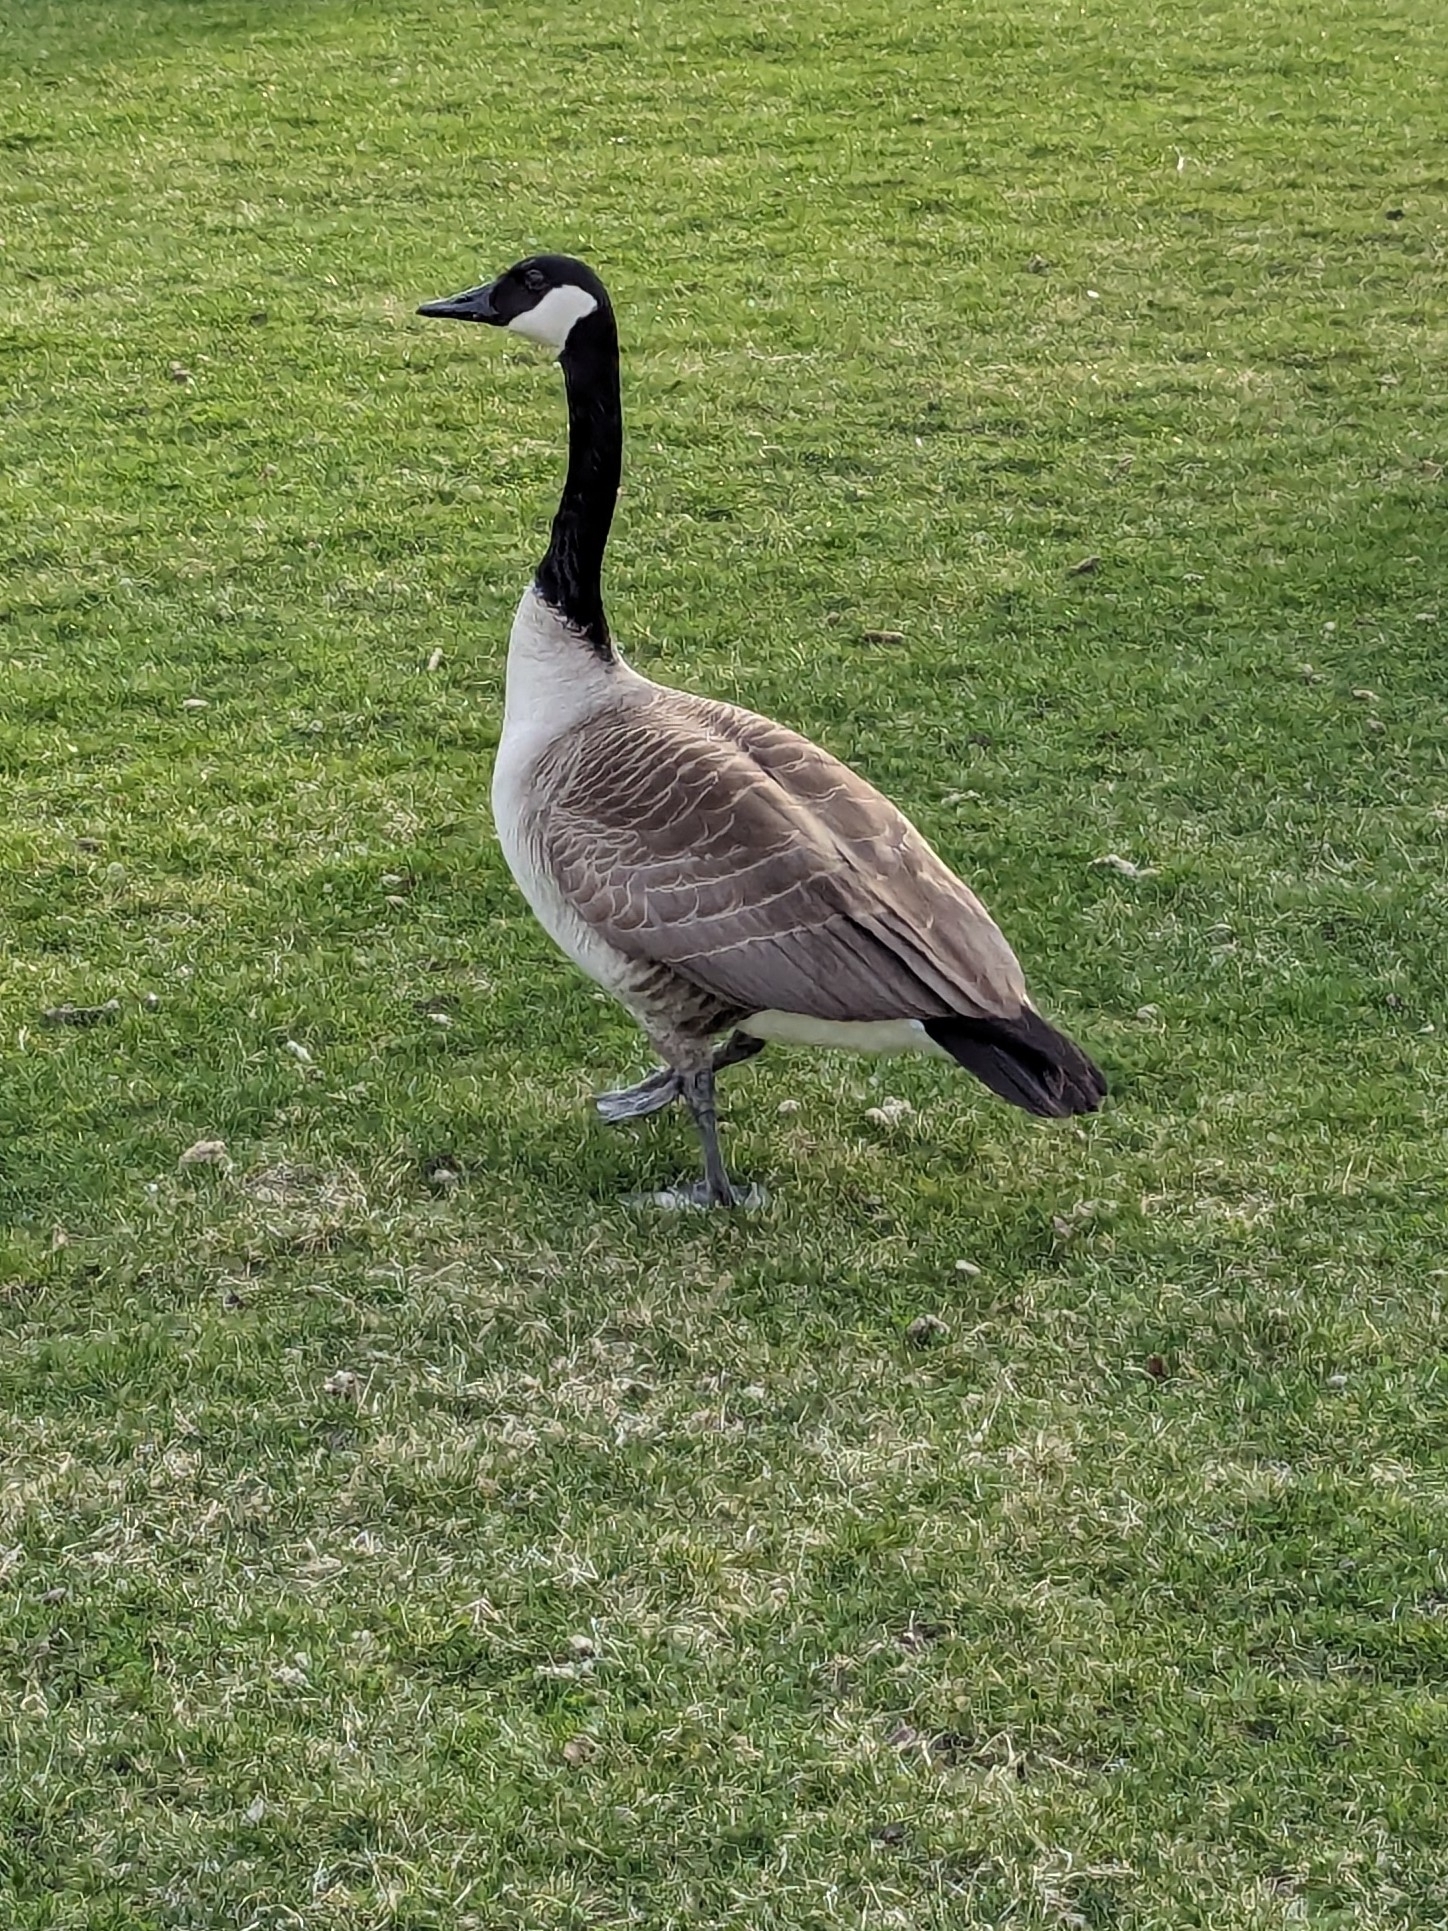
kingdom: Animalia
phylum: Chordata
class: Aves
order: Anseriformes
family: Anatidae
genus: Branta
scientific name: Branta canadensis
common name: Canada goose
